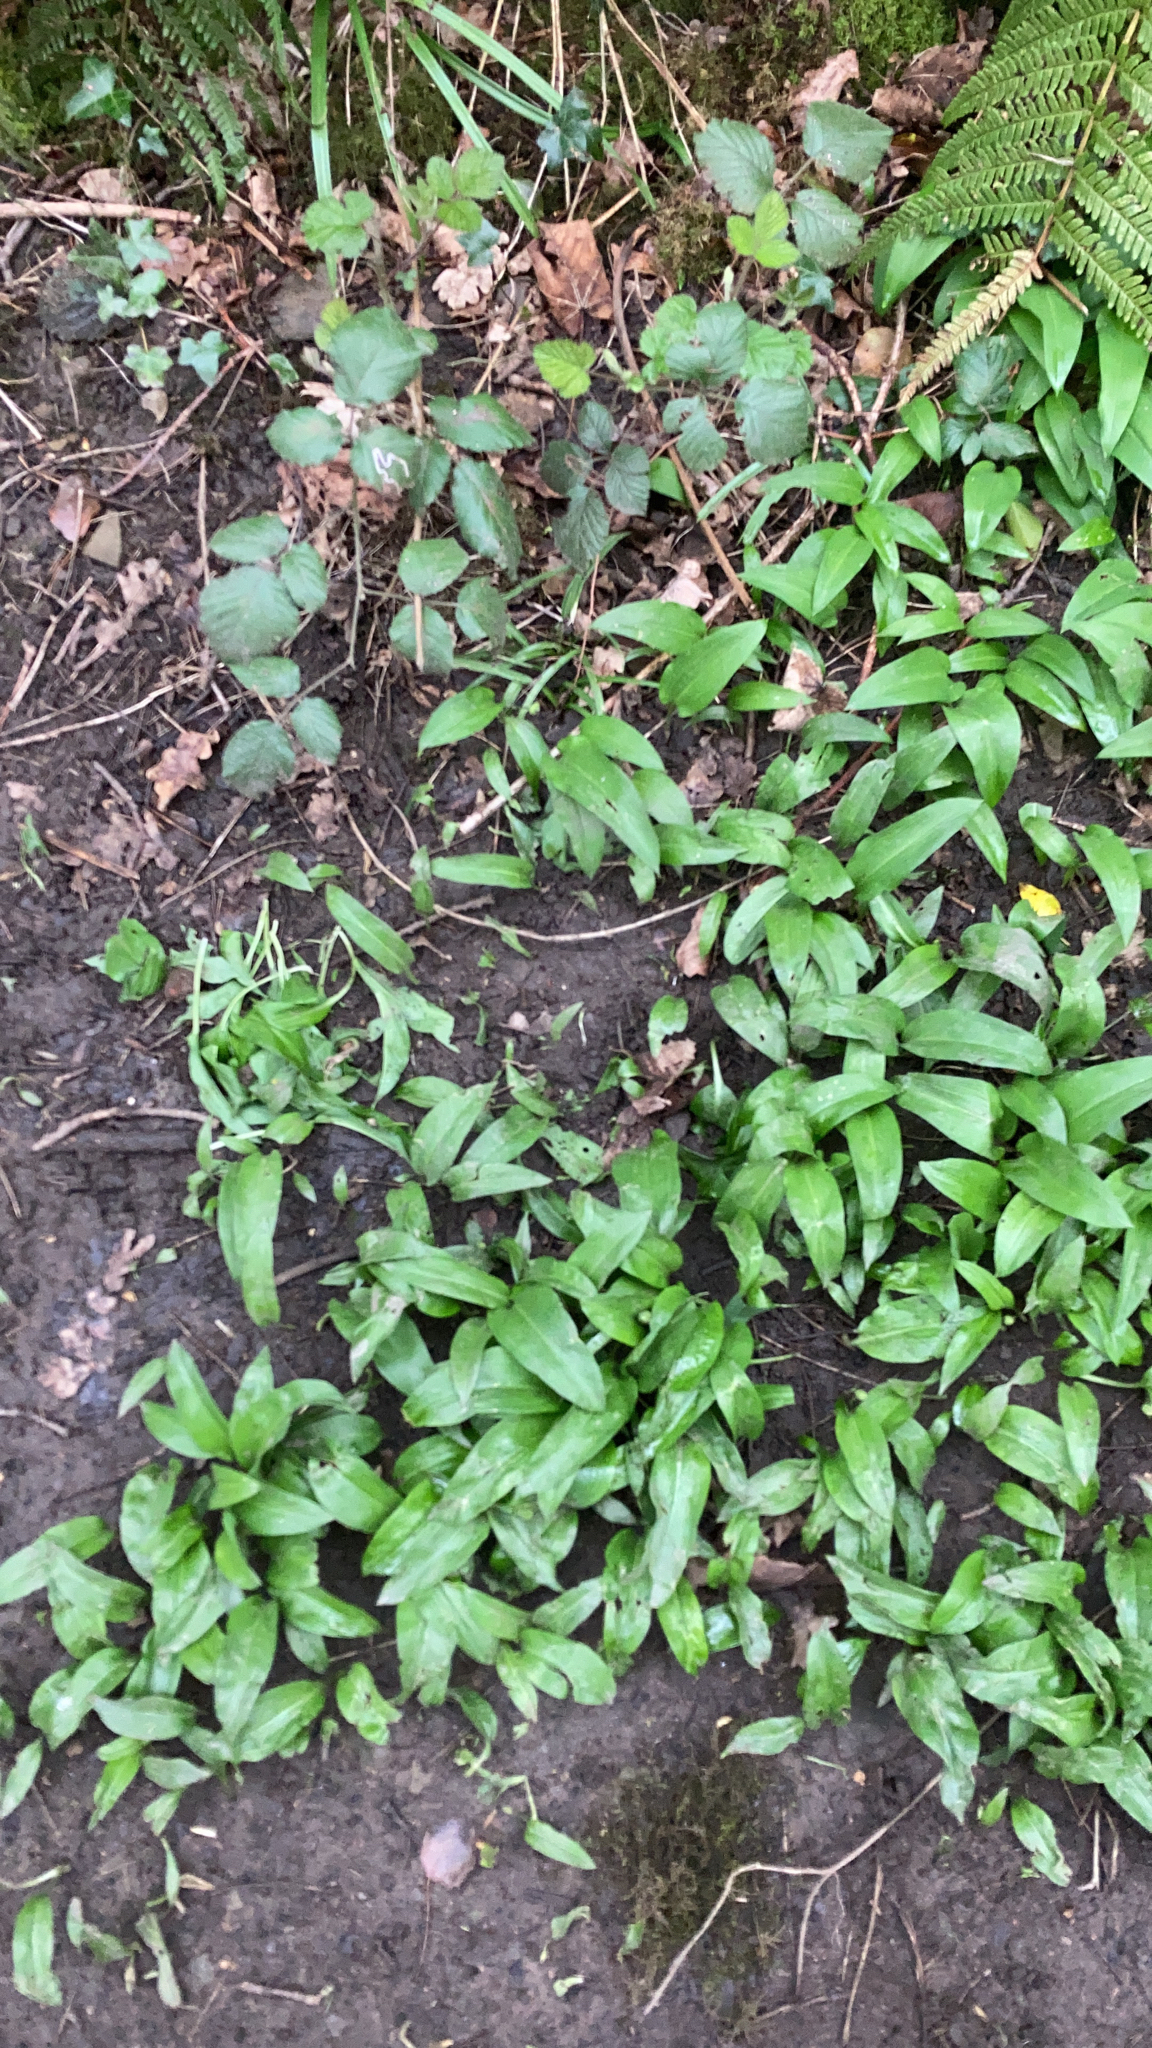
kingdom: Plantae
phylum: Tracheophyta
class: Liliopsida
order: Asparagales
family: Amaryllidaceae
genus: Allium
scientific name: Allium ursinum
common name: Ramsons
